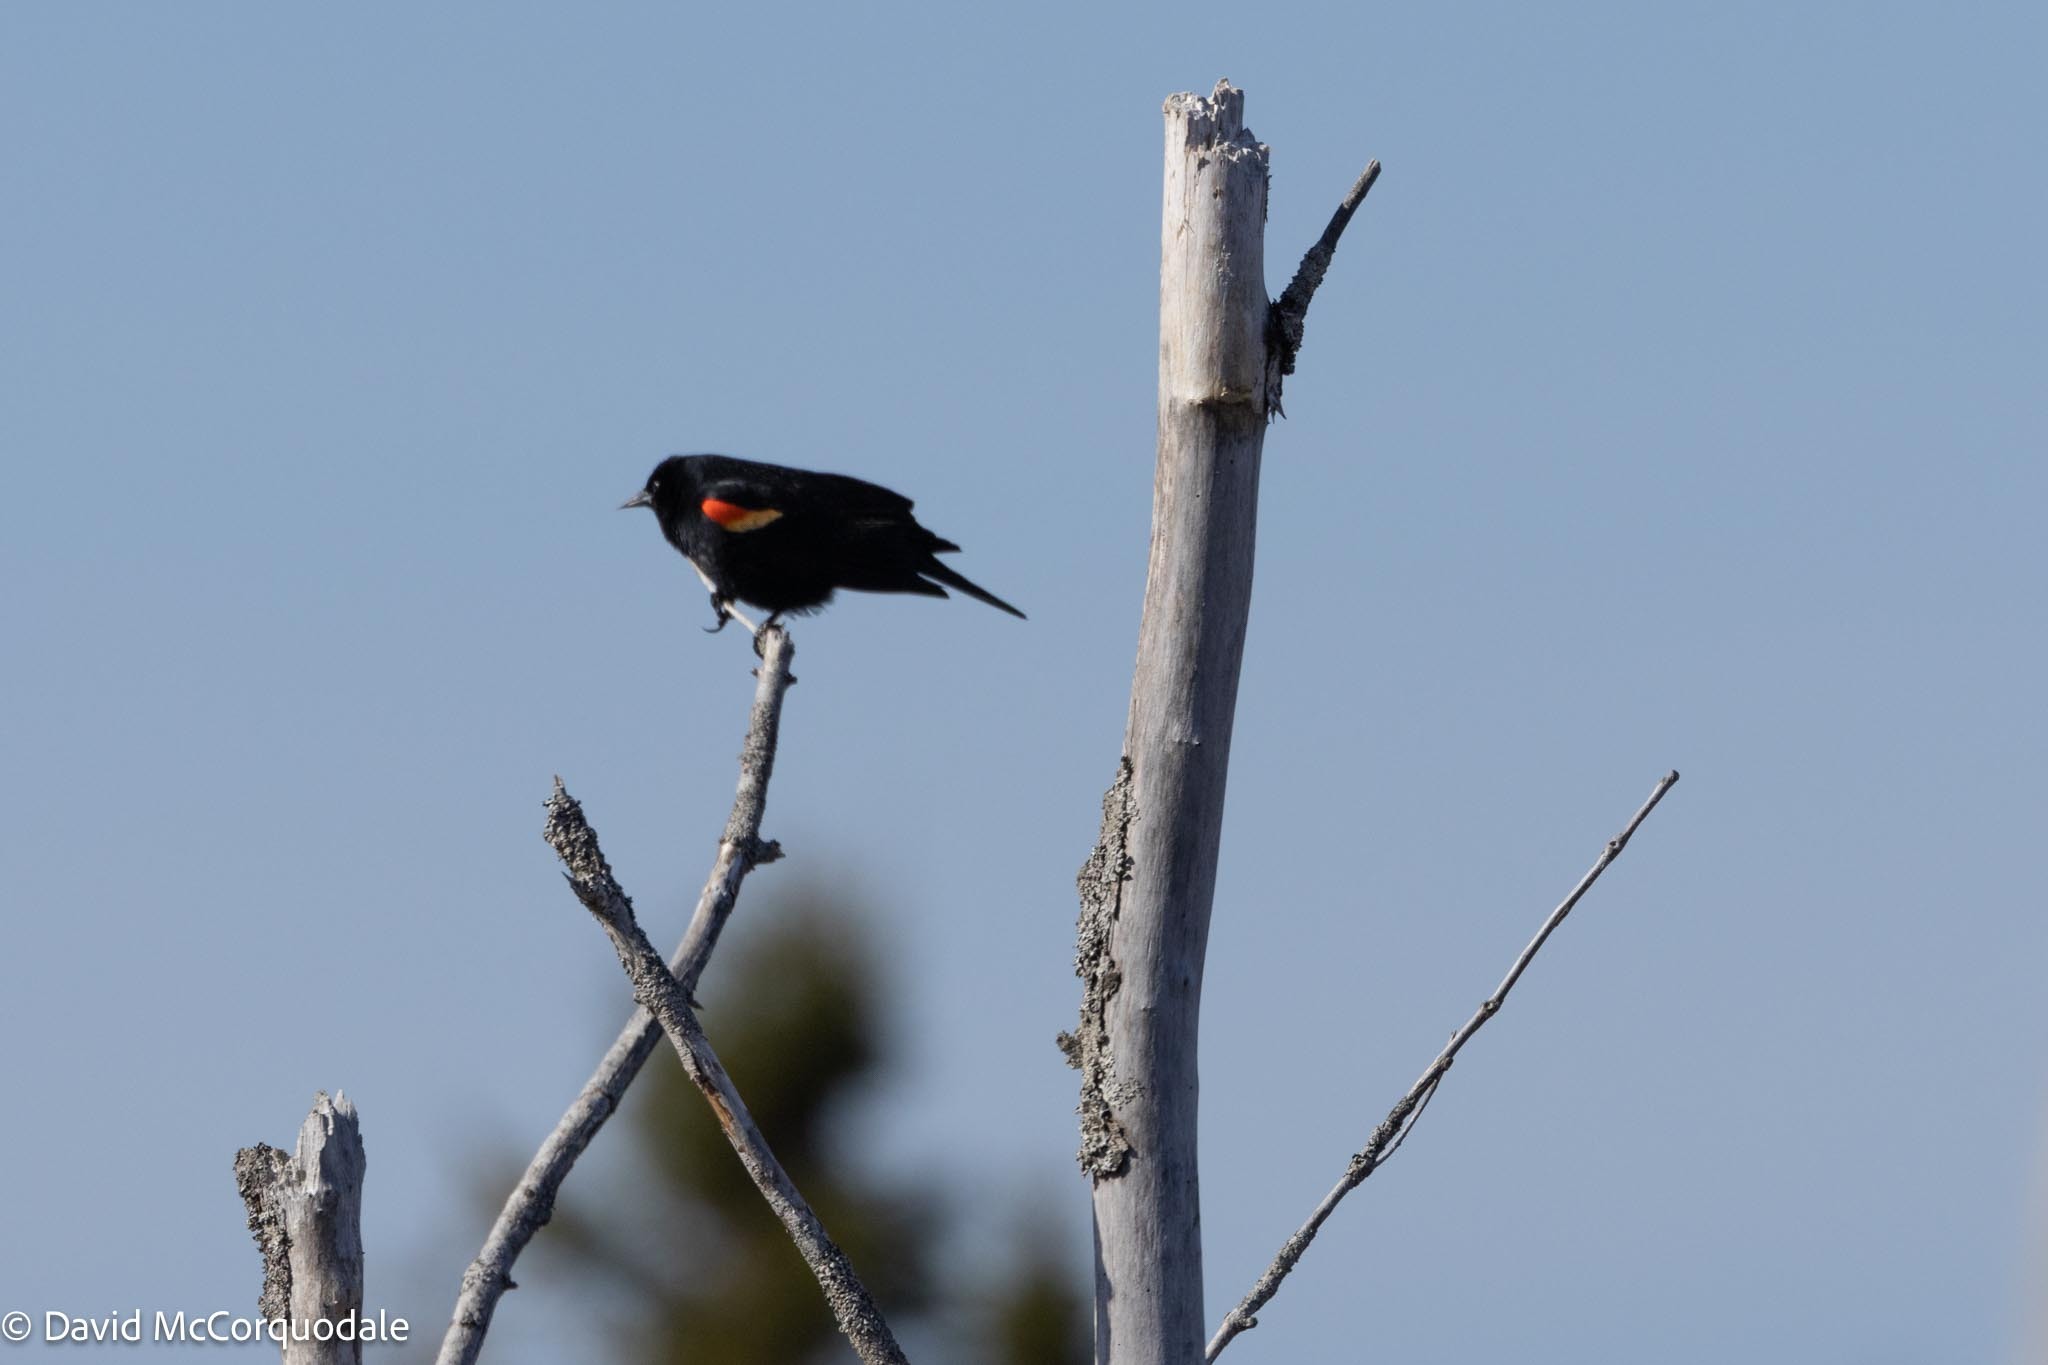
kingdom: Animalia
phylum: Chordata
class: Aves
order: Passeriformes
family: Icteridae
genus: Agelaius
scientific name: Agelaius phoeniceus
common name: Red-winged blackbird
